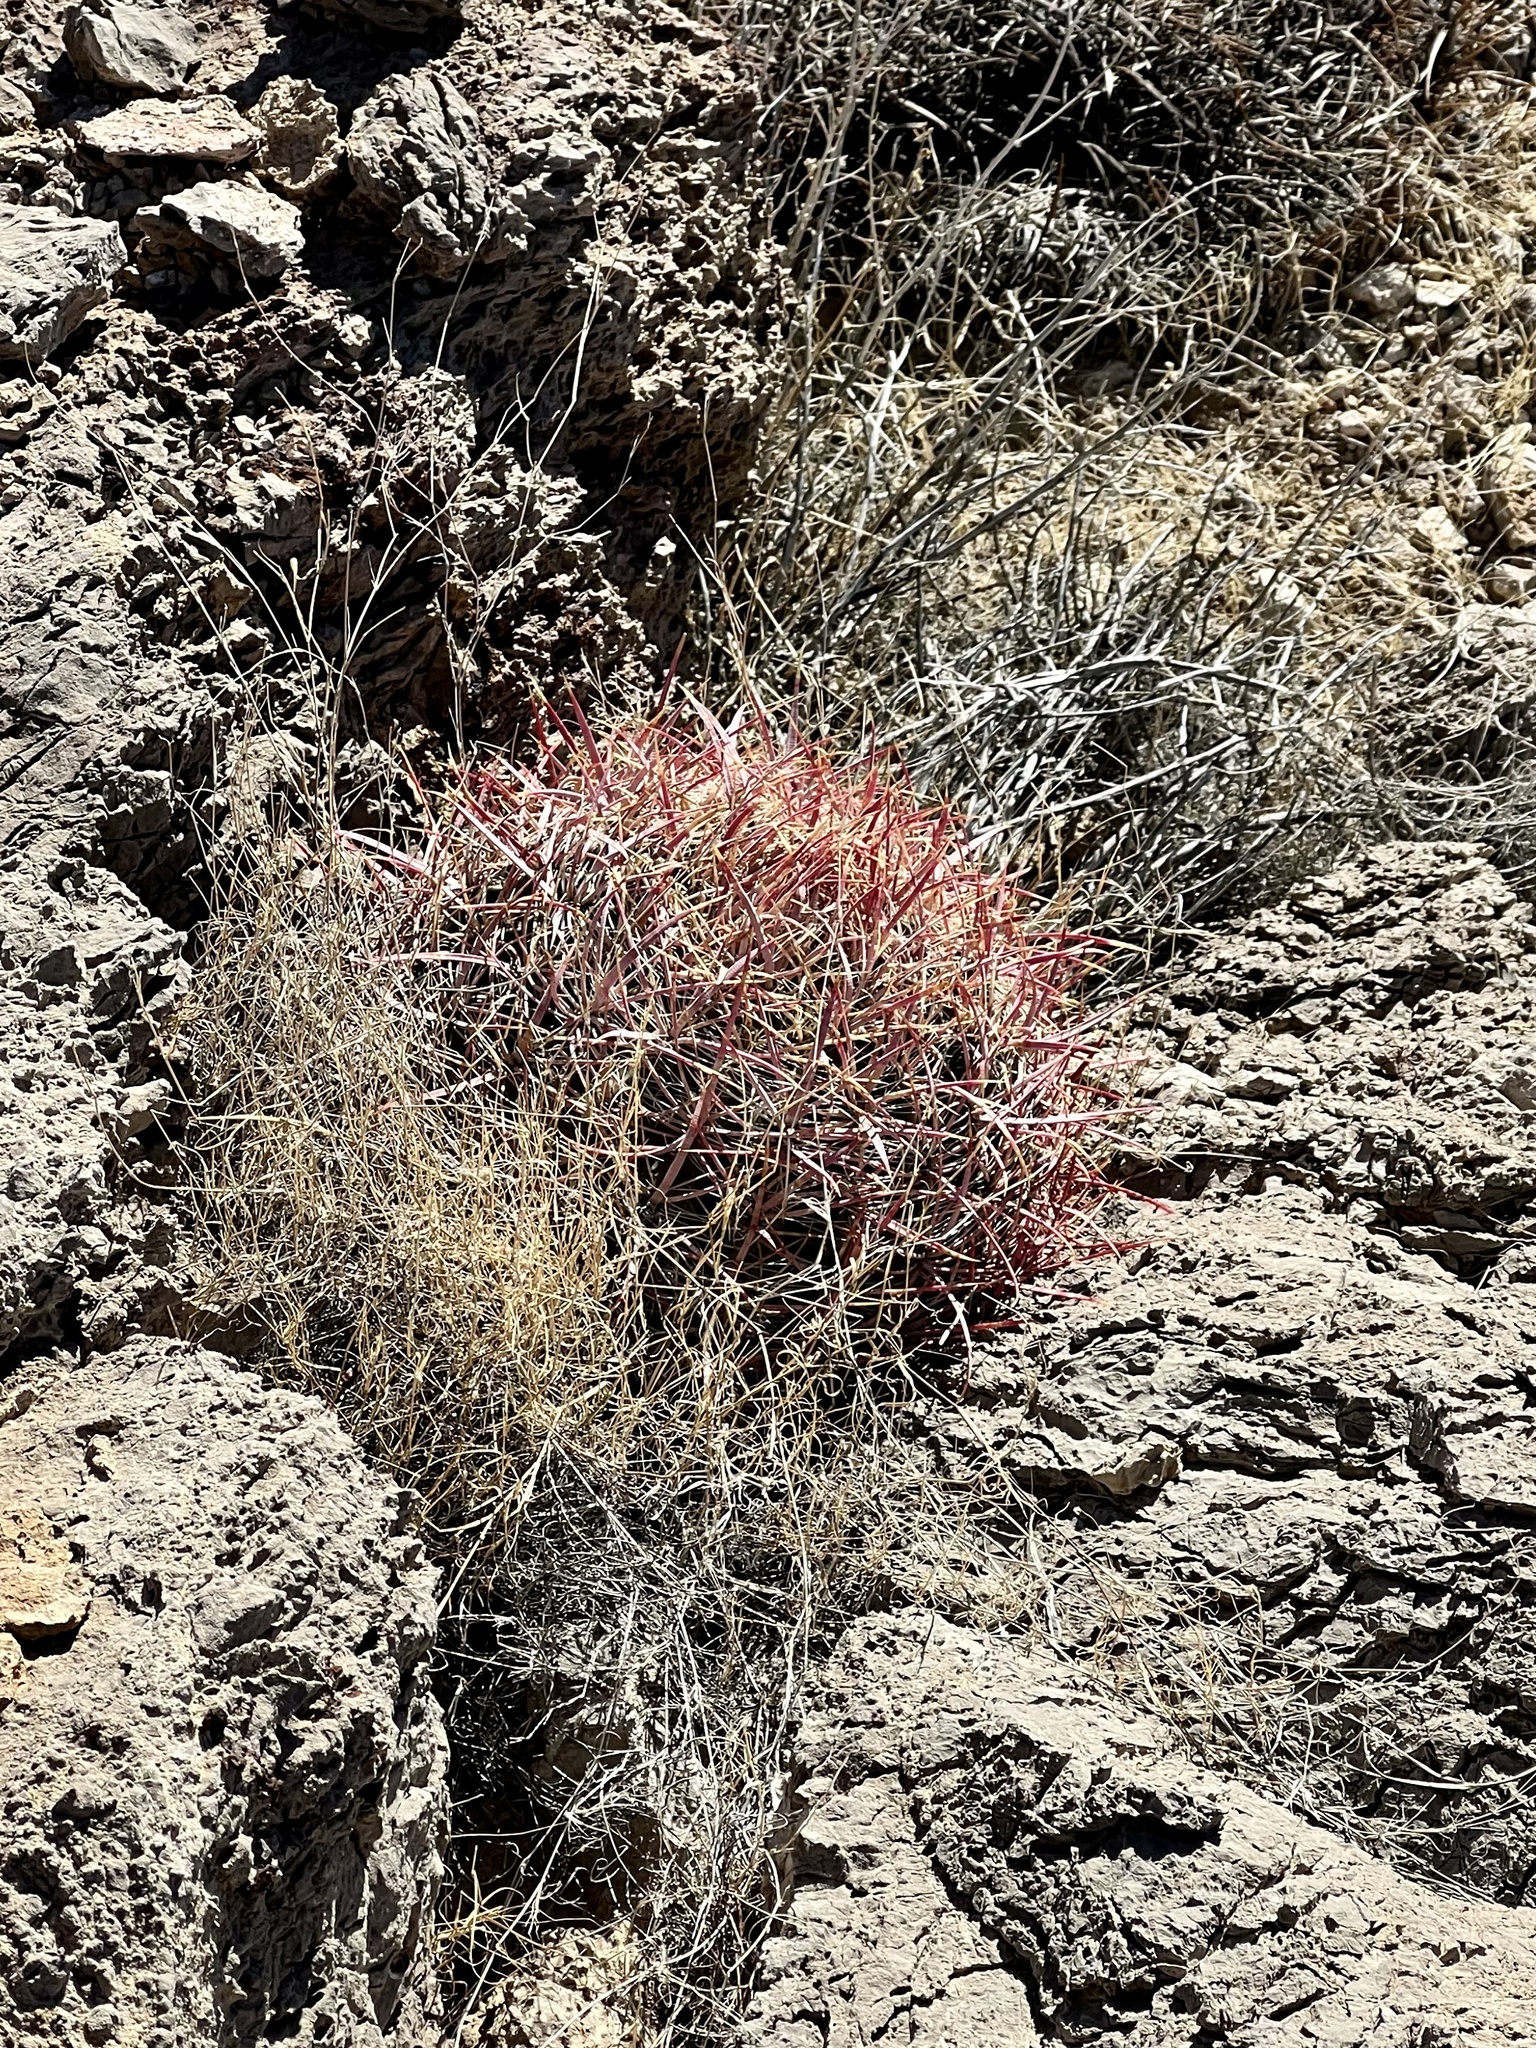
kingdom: Plantae
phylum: Tracheophyta
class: Magnoliopsida
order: Caryophyllales
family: Cactaceae
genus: Ferocactus
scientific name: Ferocactus cylindraceus
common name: California barrel cactus
